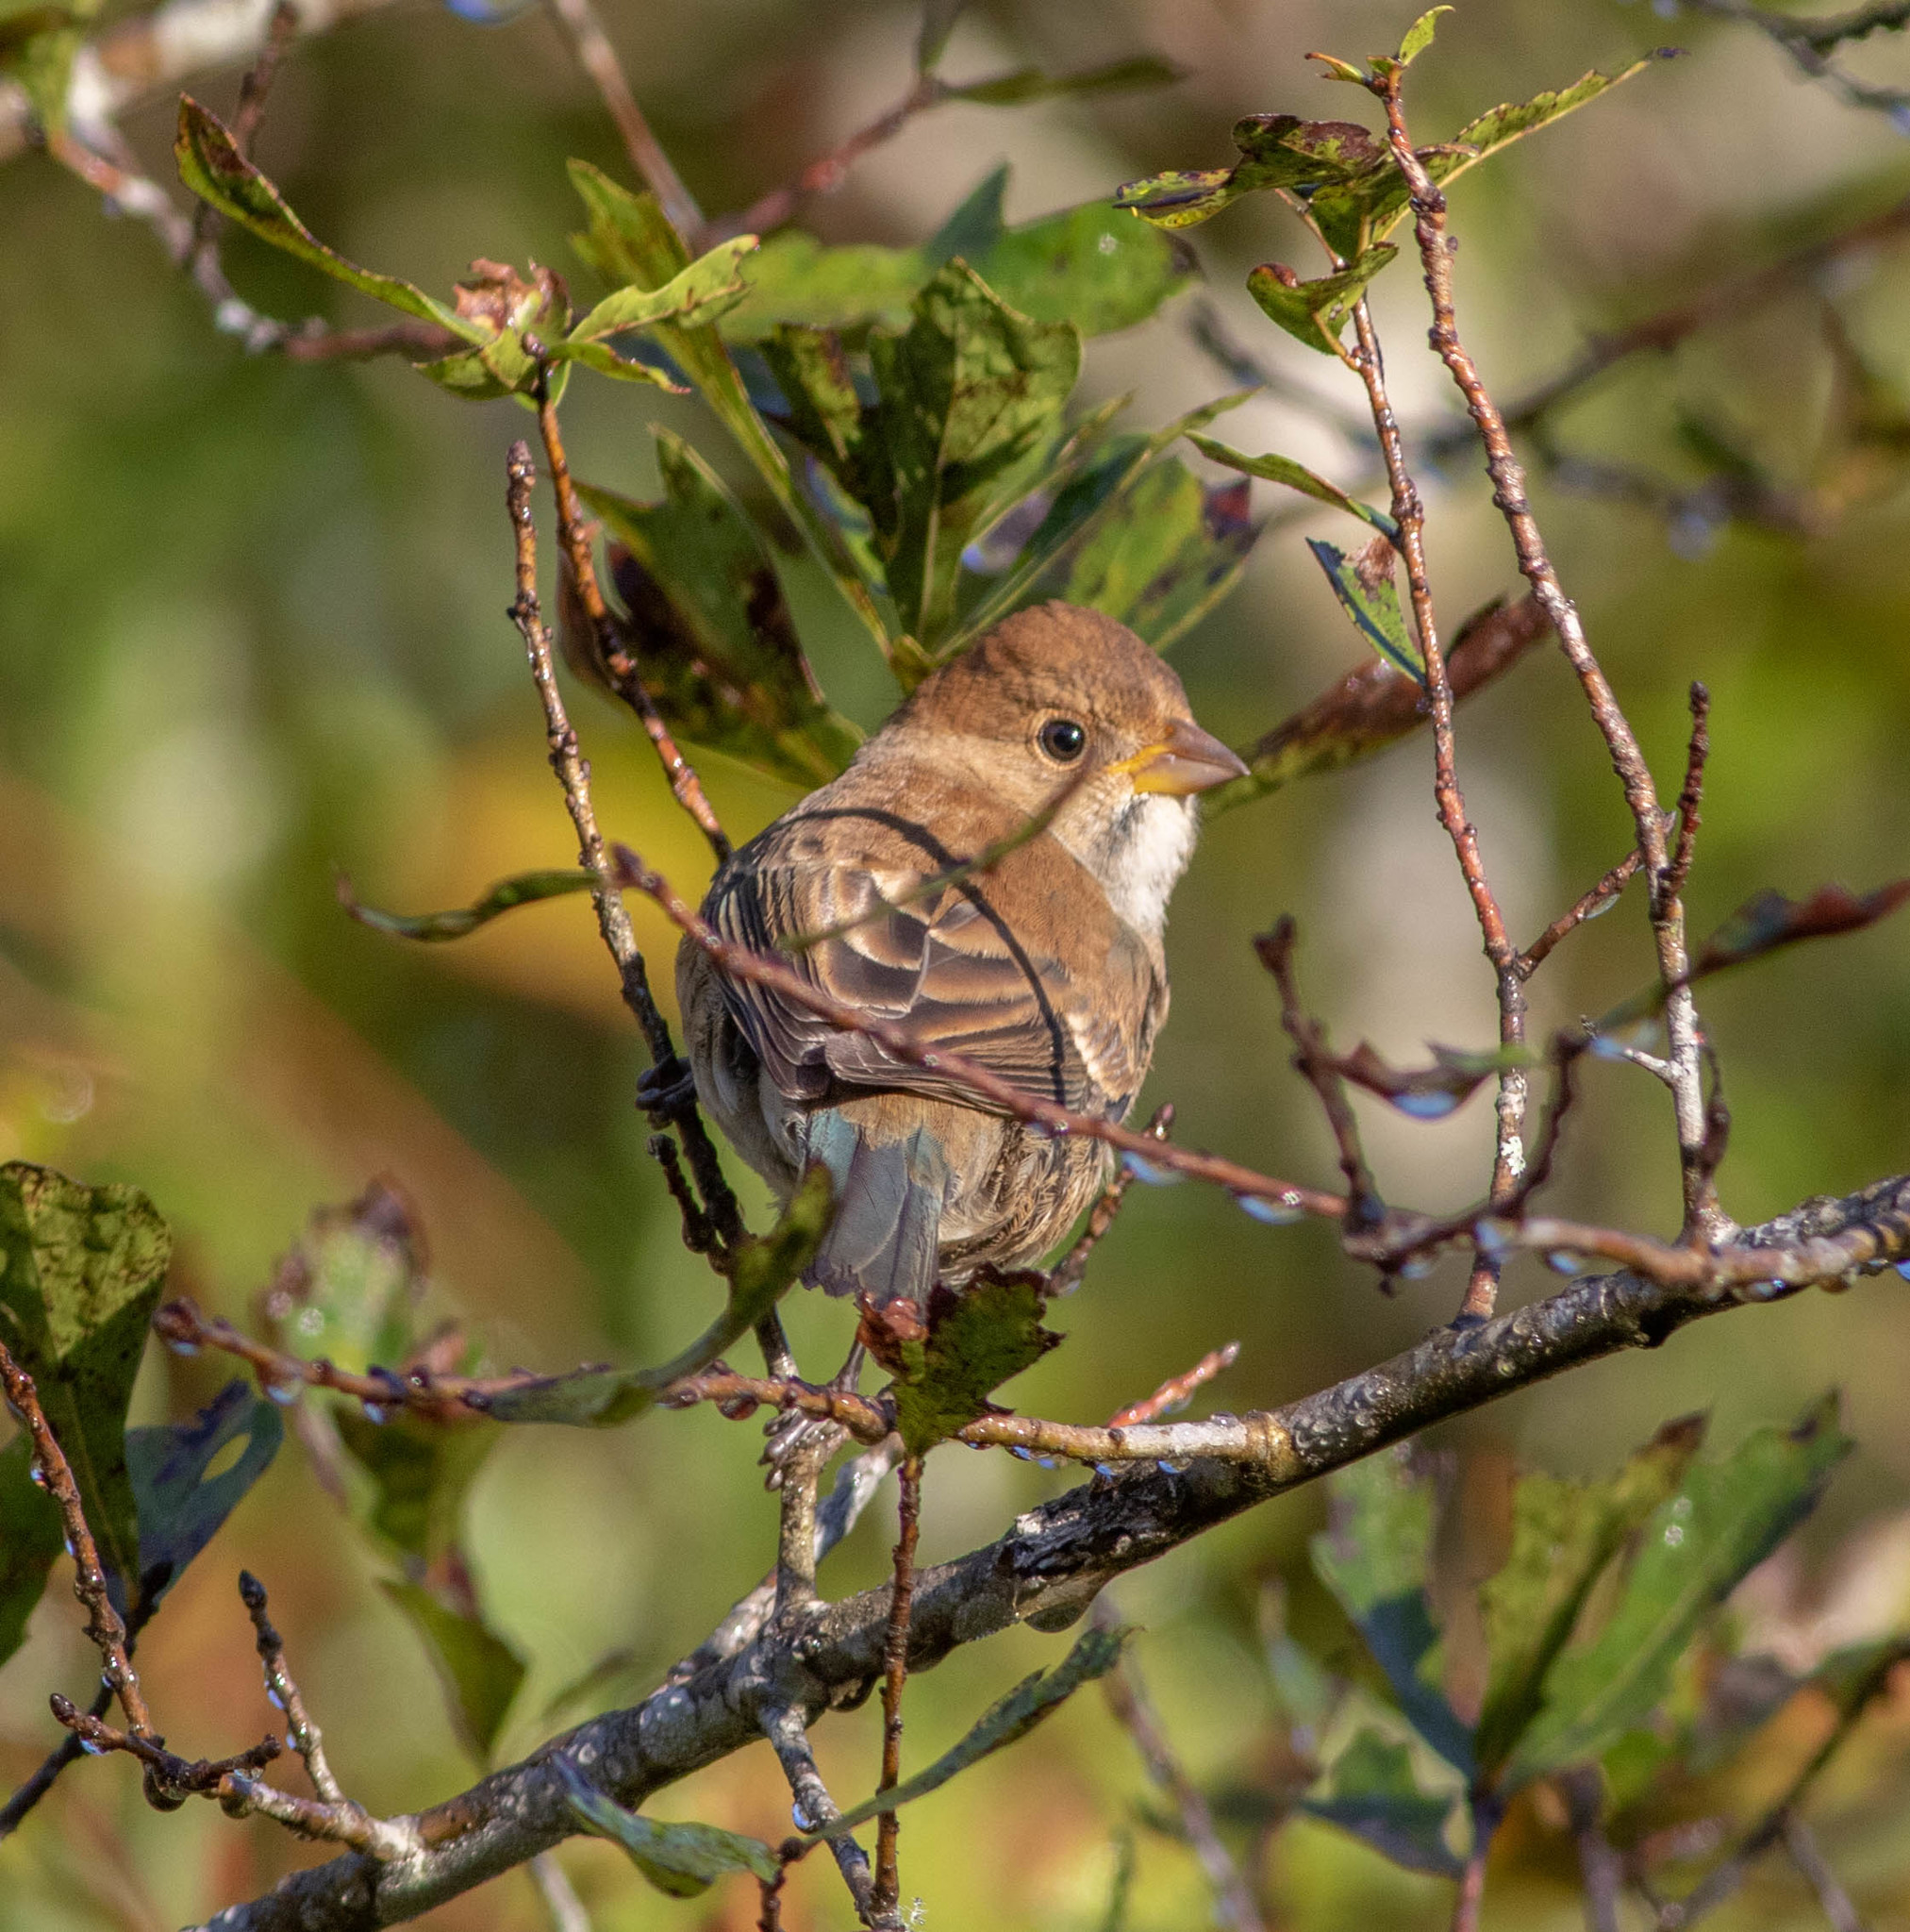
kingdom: Animalia
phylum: Chordata
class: Aves
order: Passeriformes
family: Cardinalidae
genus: Passerina
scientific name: Passerina cyanea
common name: Indigo bunting
